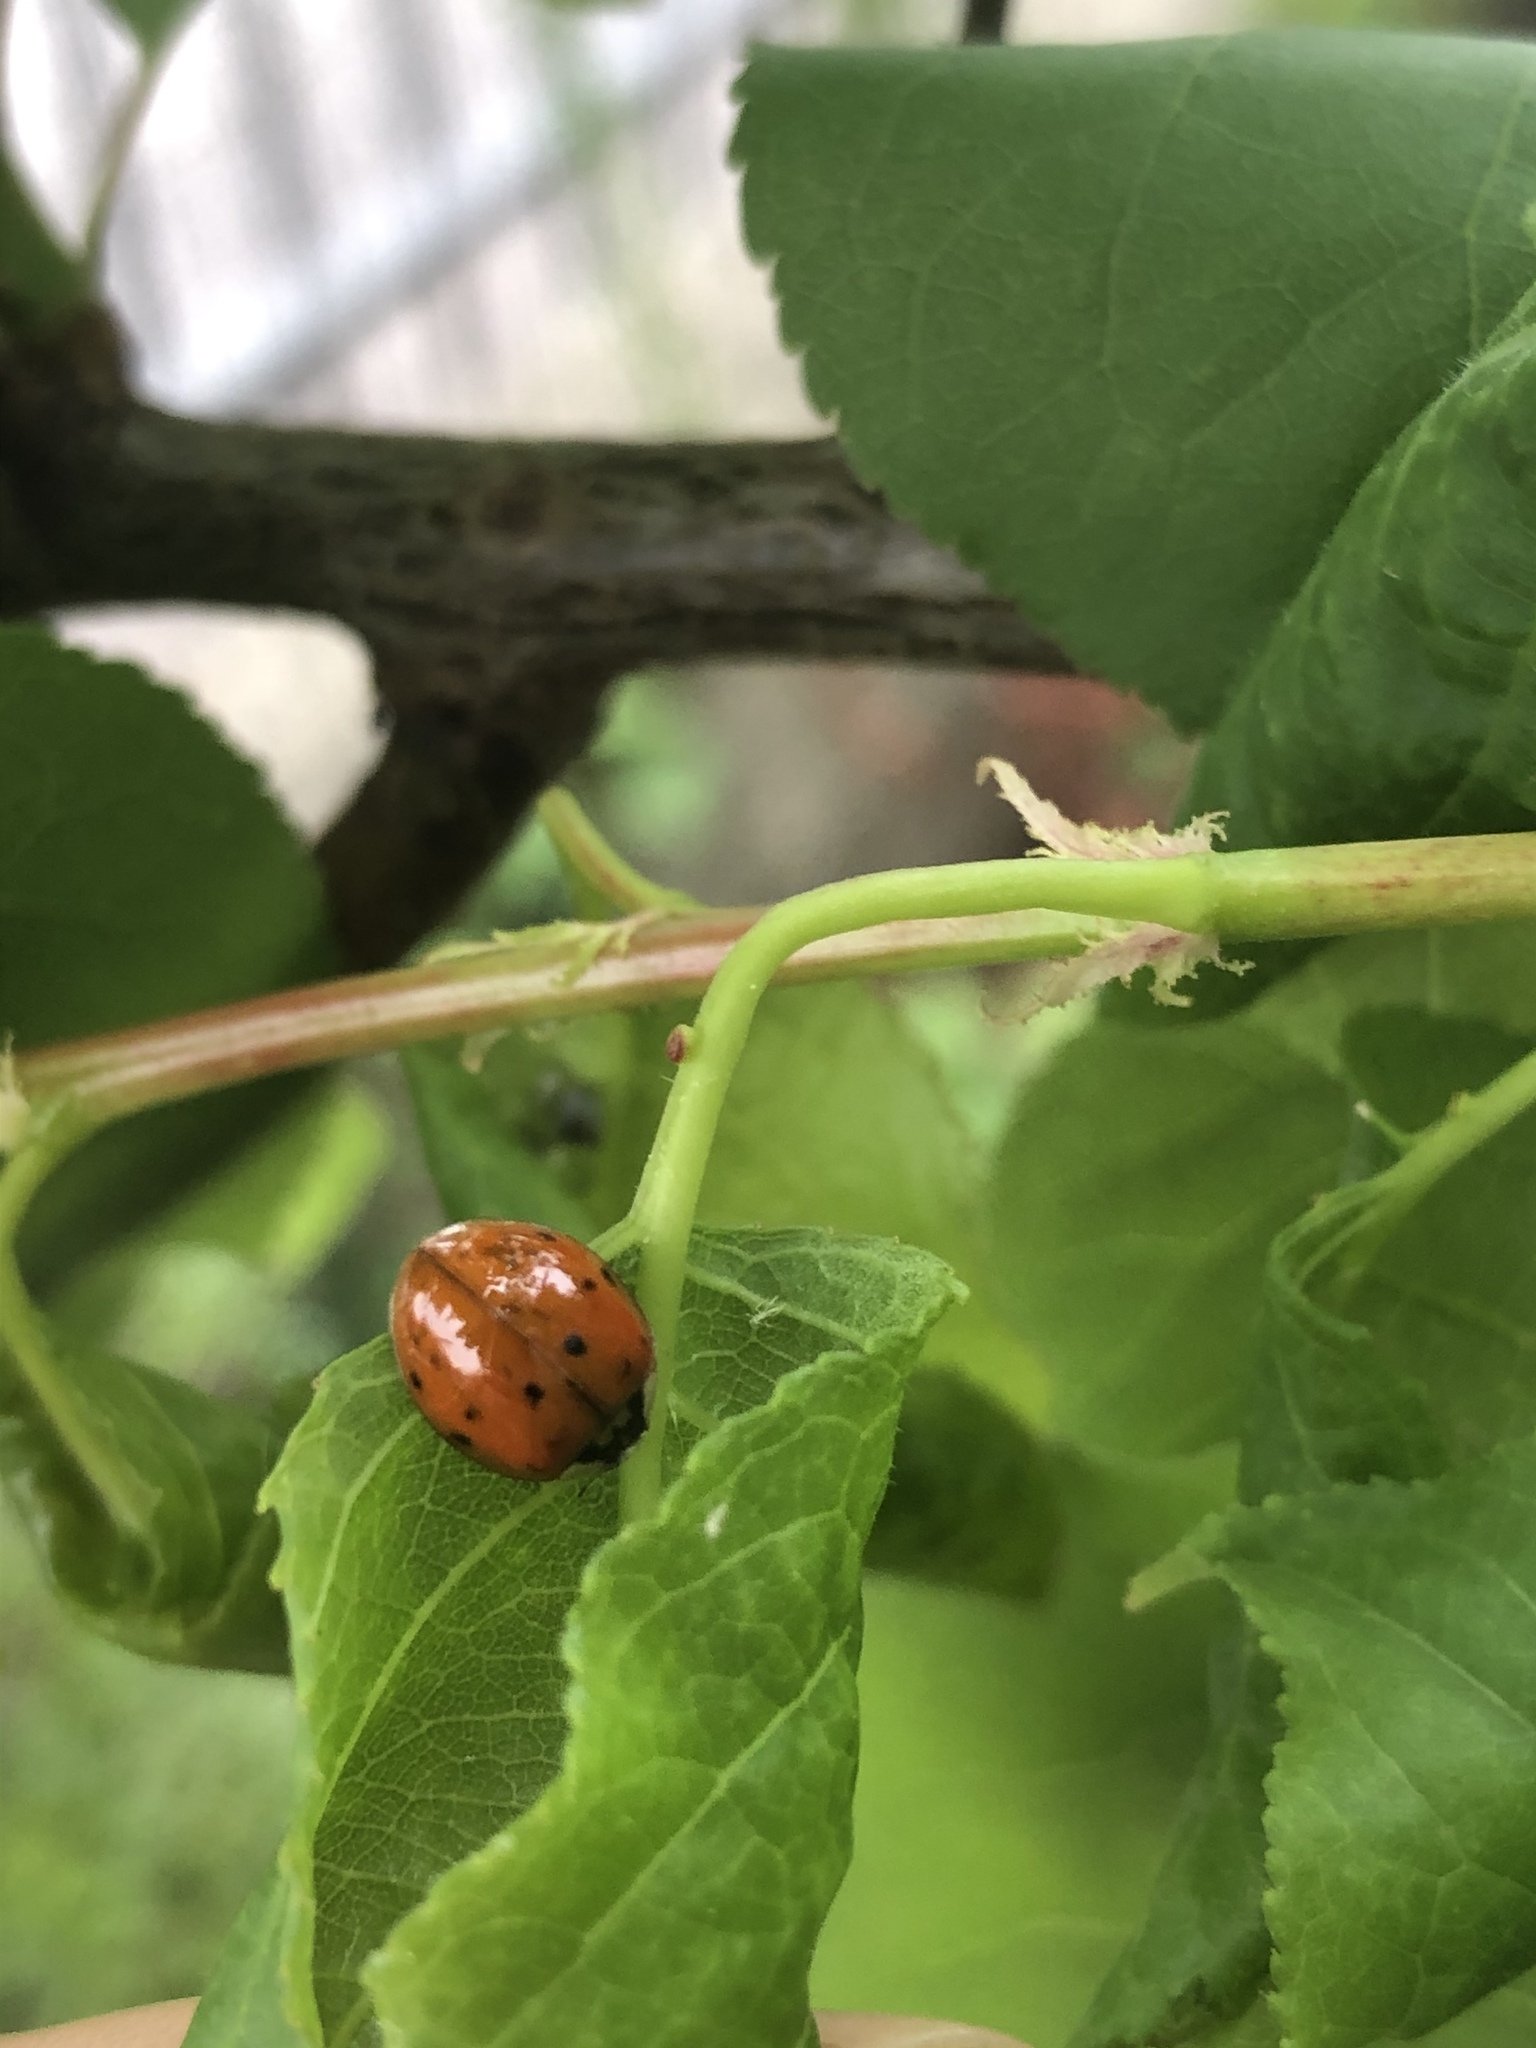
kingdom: Animalia
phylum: Arthropoda
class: Insecta
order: Coleoptera
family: Coccinellidae
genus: Harmonia
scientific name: Harmonia axyridis
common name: Harlequin ladybird
